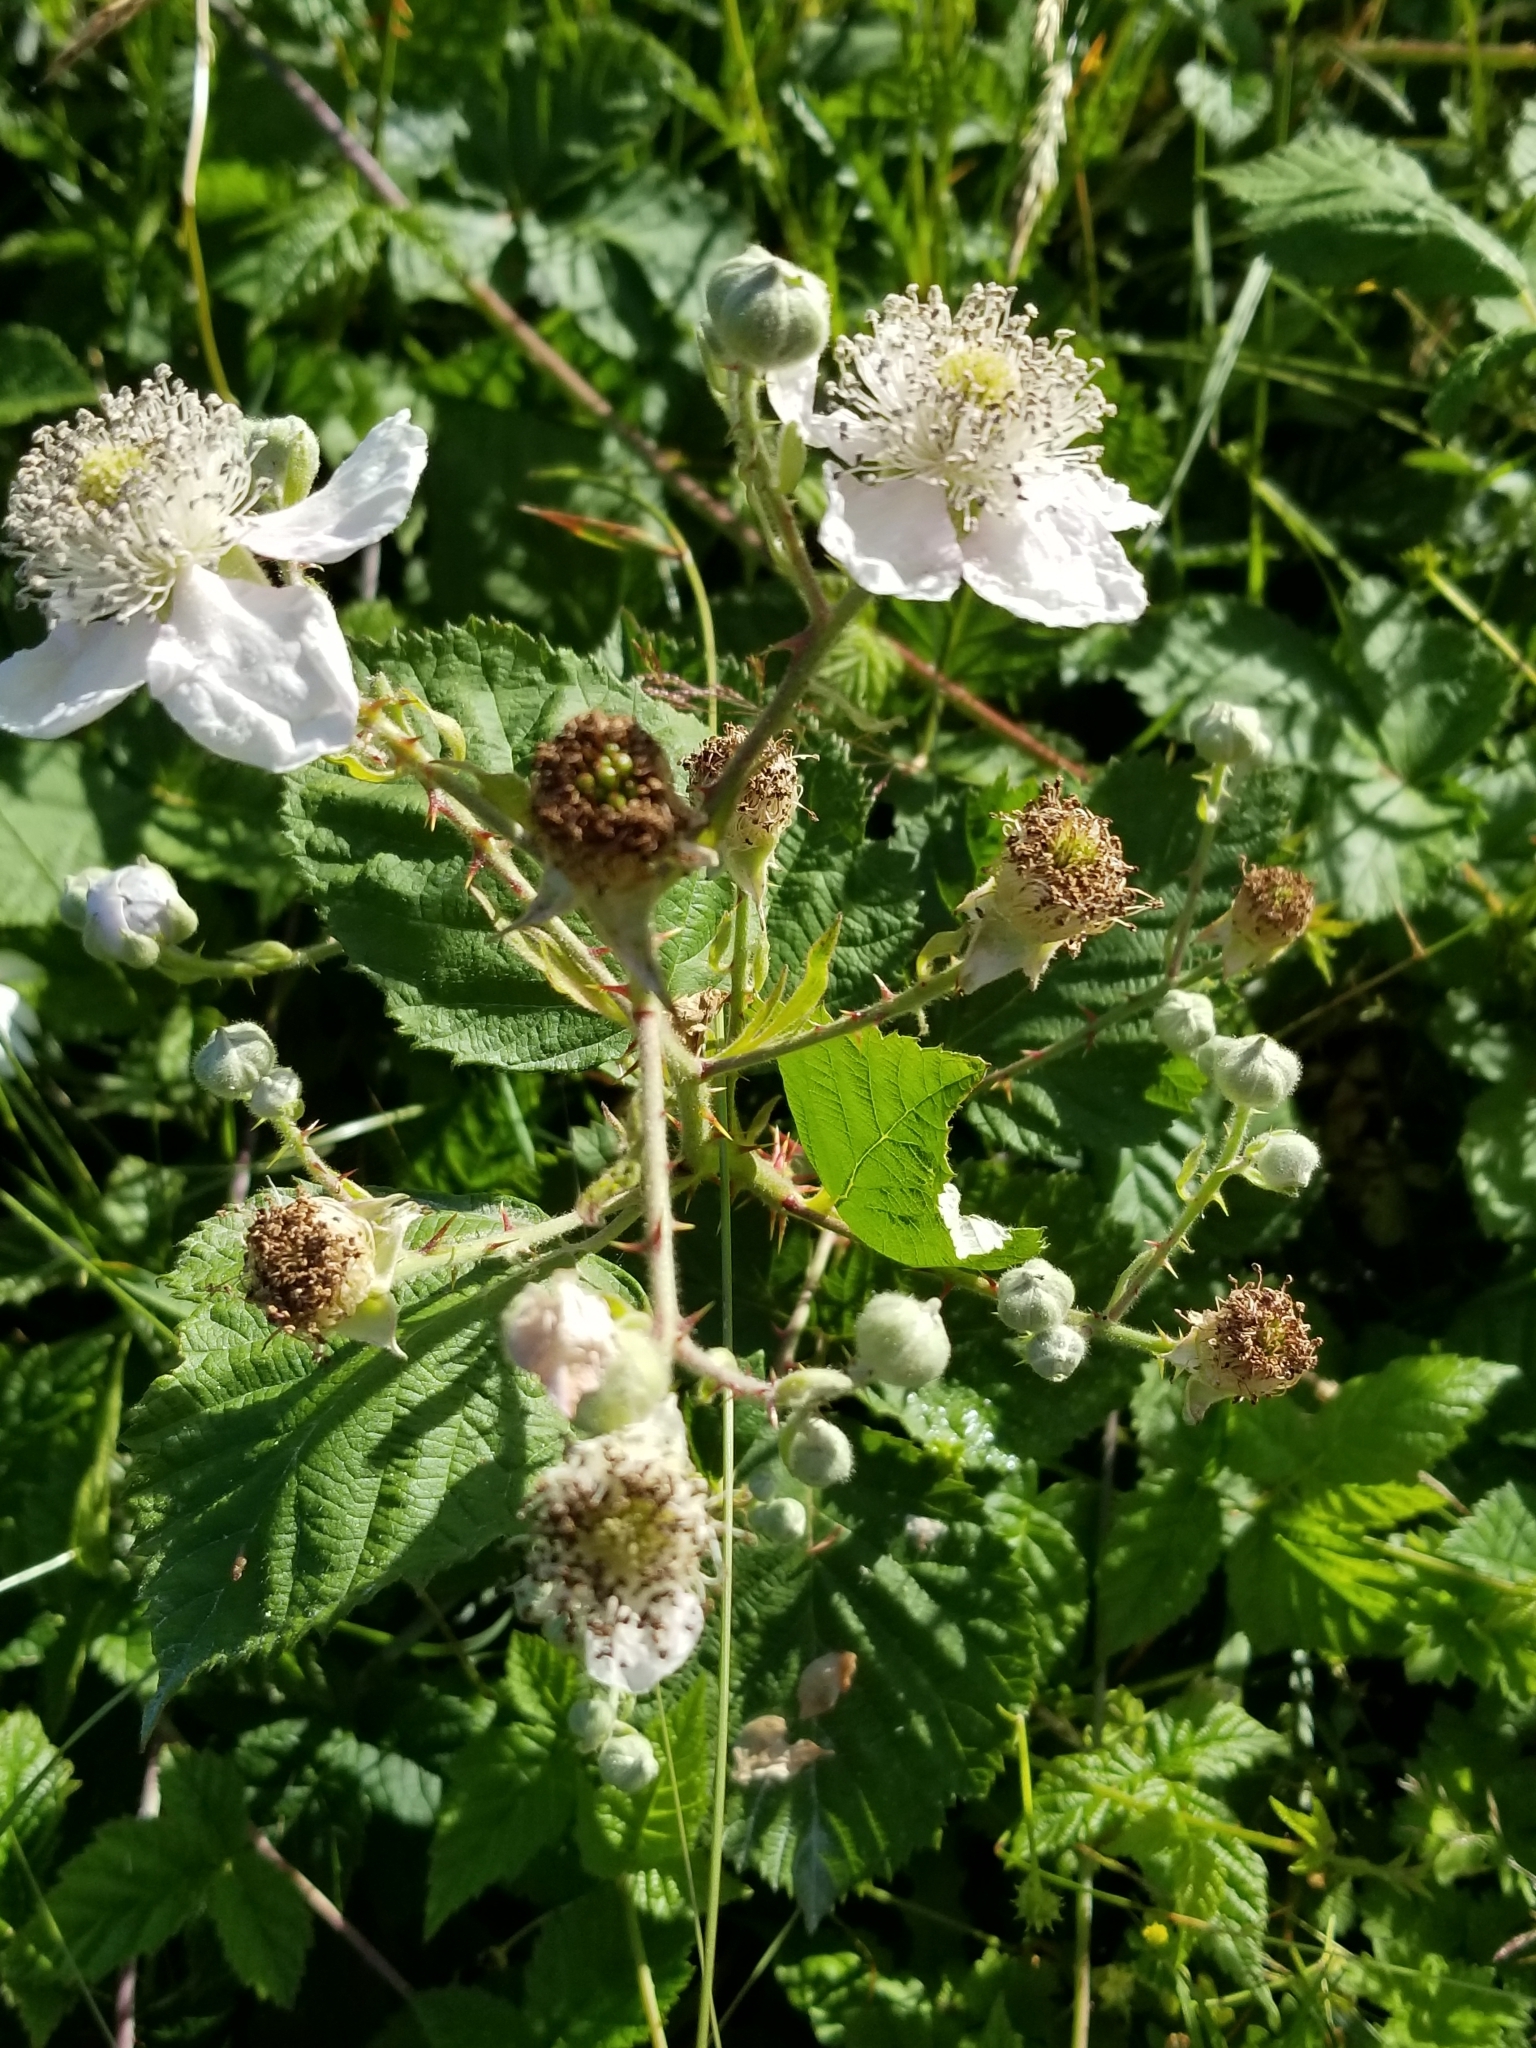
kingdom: Plantae
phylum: Tracheophyta
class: Magnoliopsida
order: Rosales
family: Rosaceae
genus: Rubus
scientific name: Rubus bifrons
